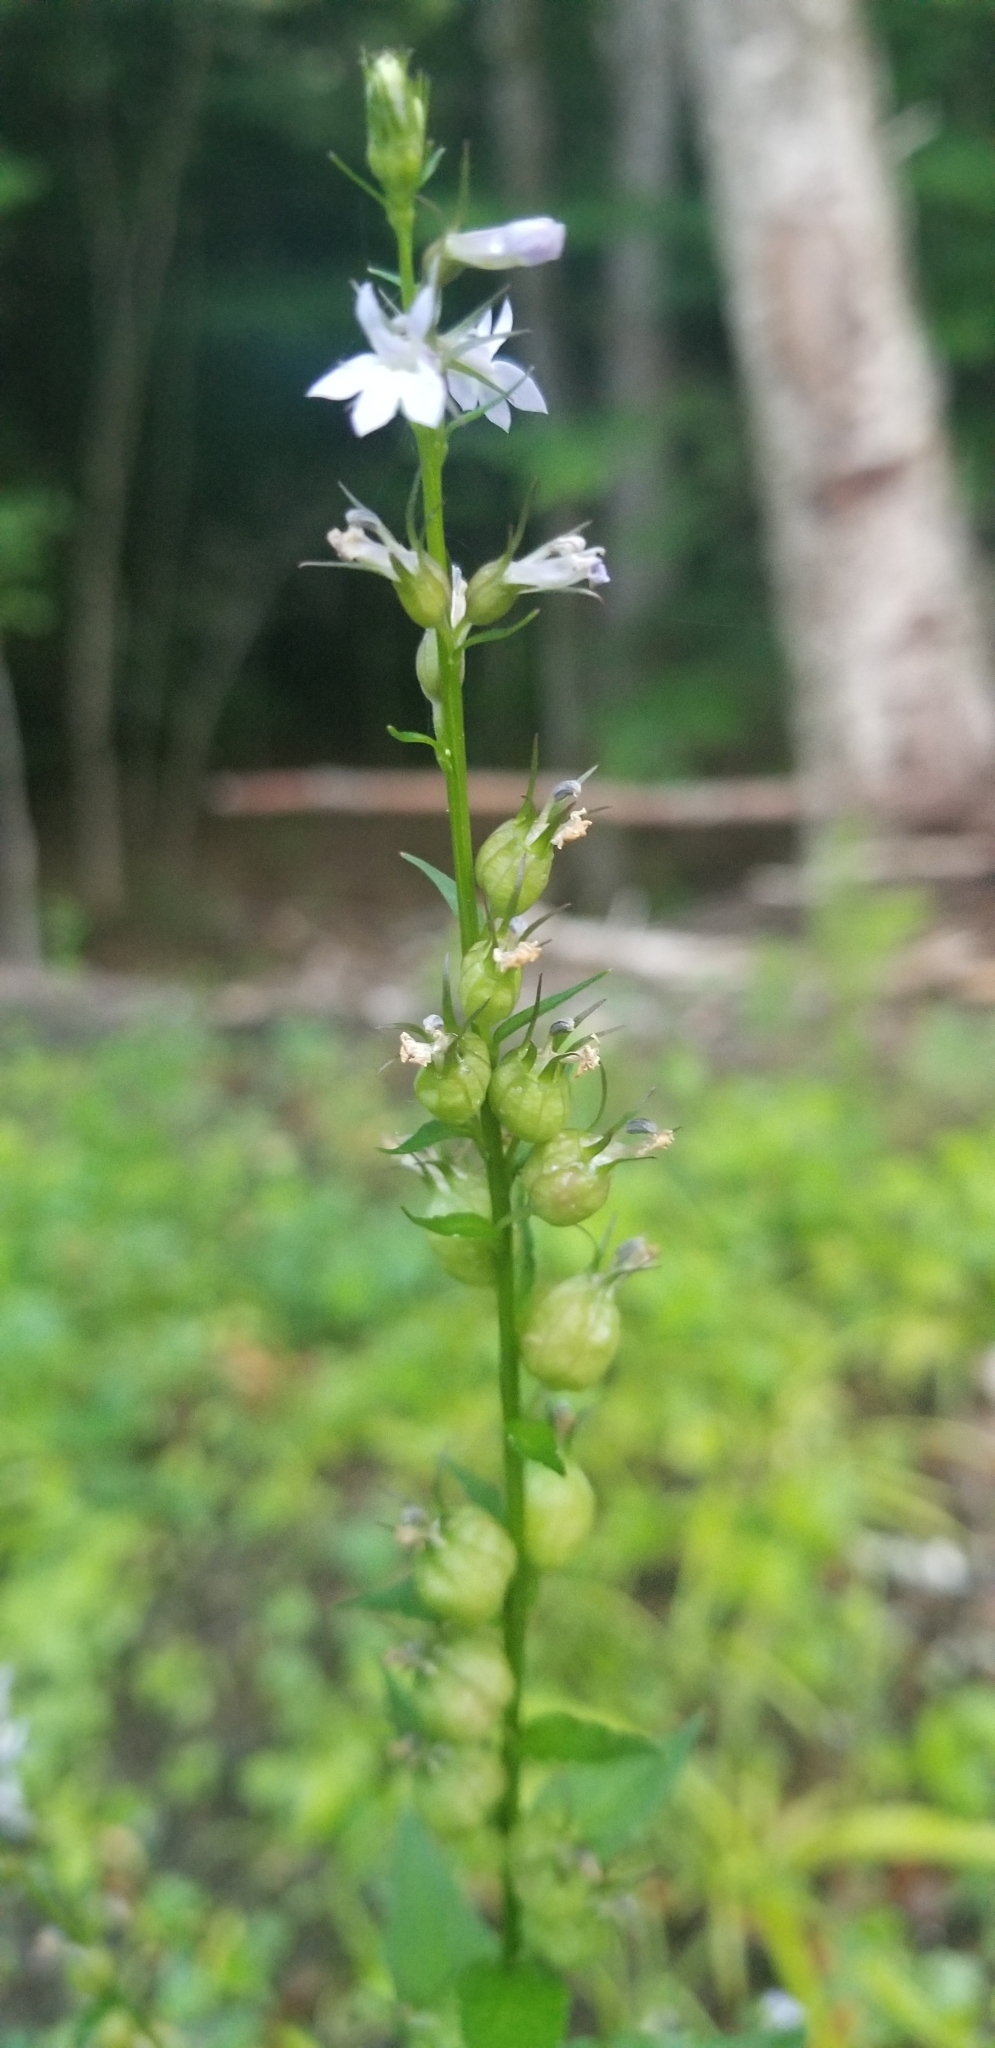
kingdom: Plantae
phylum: Tracheophyta
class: Magnoliopsida
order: Asterales
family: Campanulaceae
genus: Lobelia
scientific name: Lobelia inflata
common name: Indian tobacco
